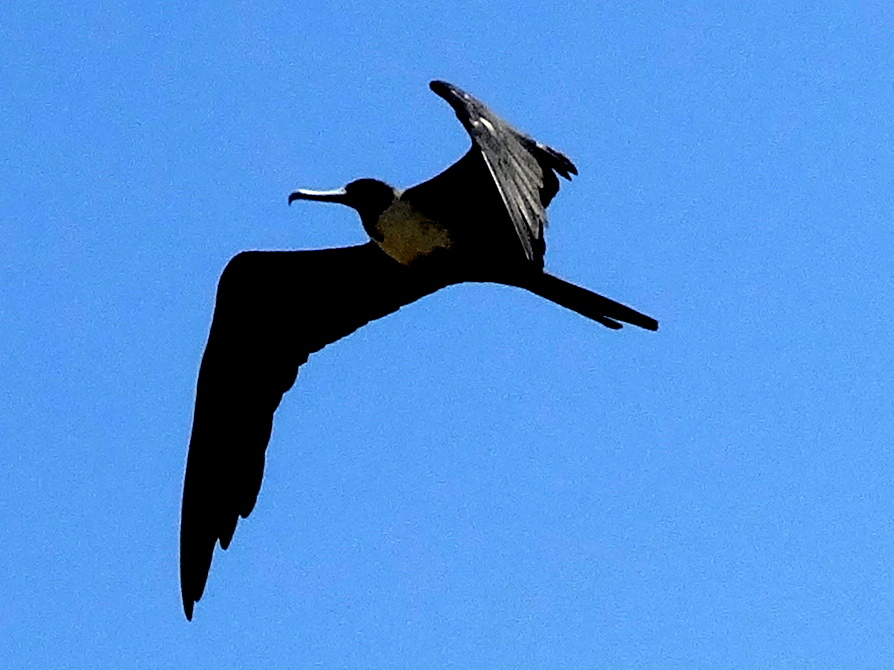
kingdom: Animalia
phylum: Chordata
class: Aves
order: Suliformes
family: Fregatidae
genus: Fregata
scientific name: Fregata magnificens
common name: Magnificent frigatebird
